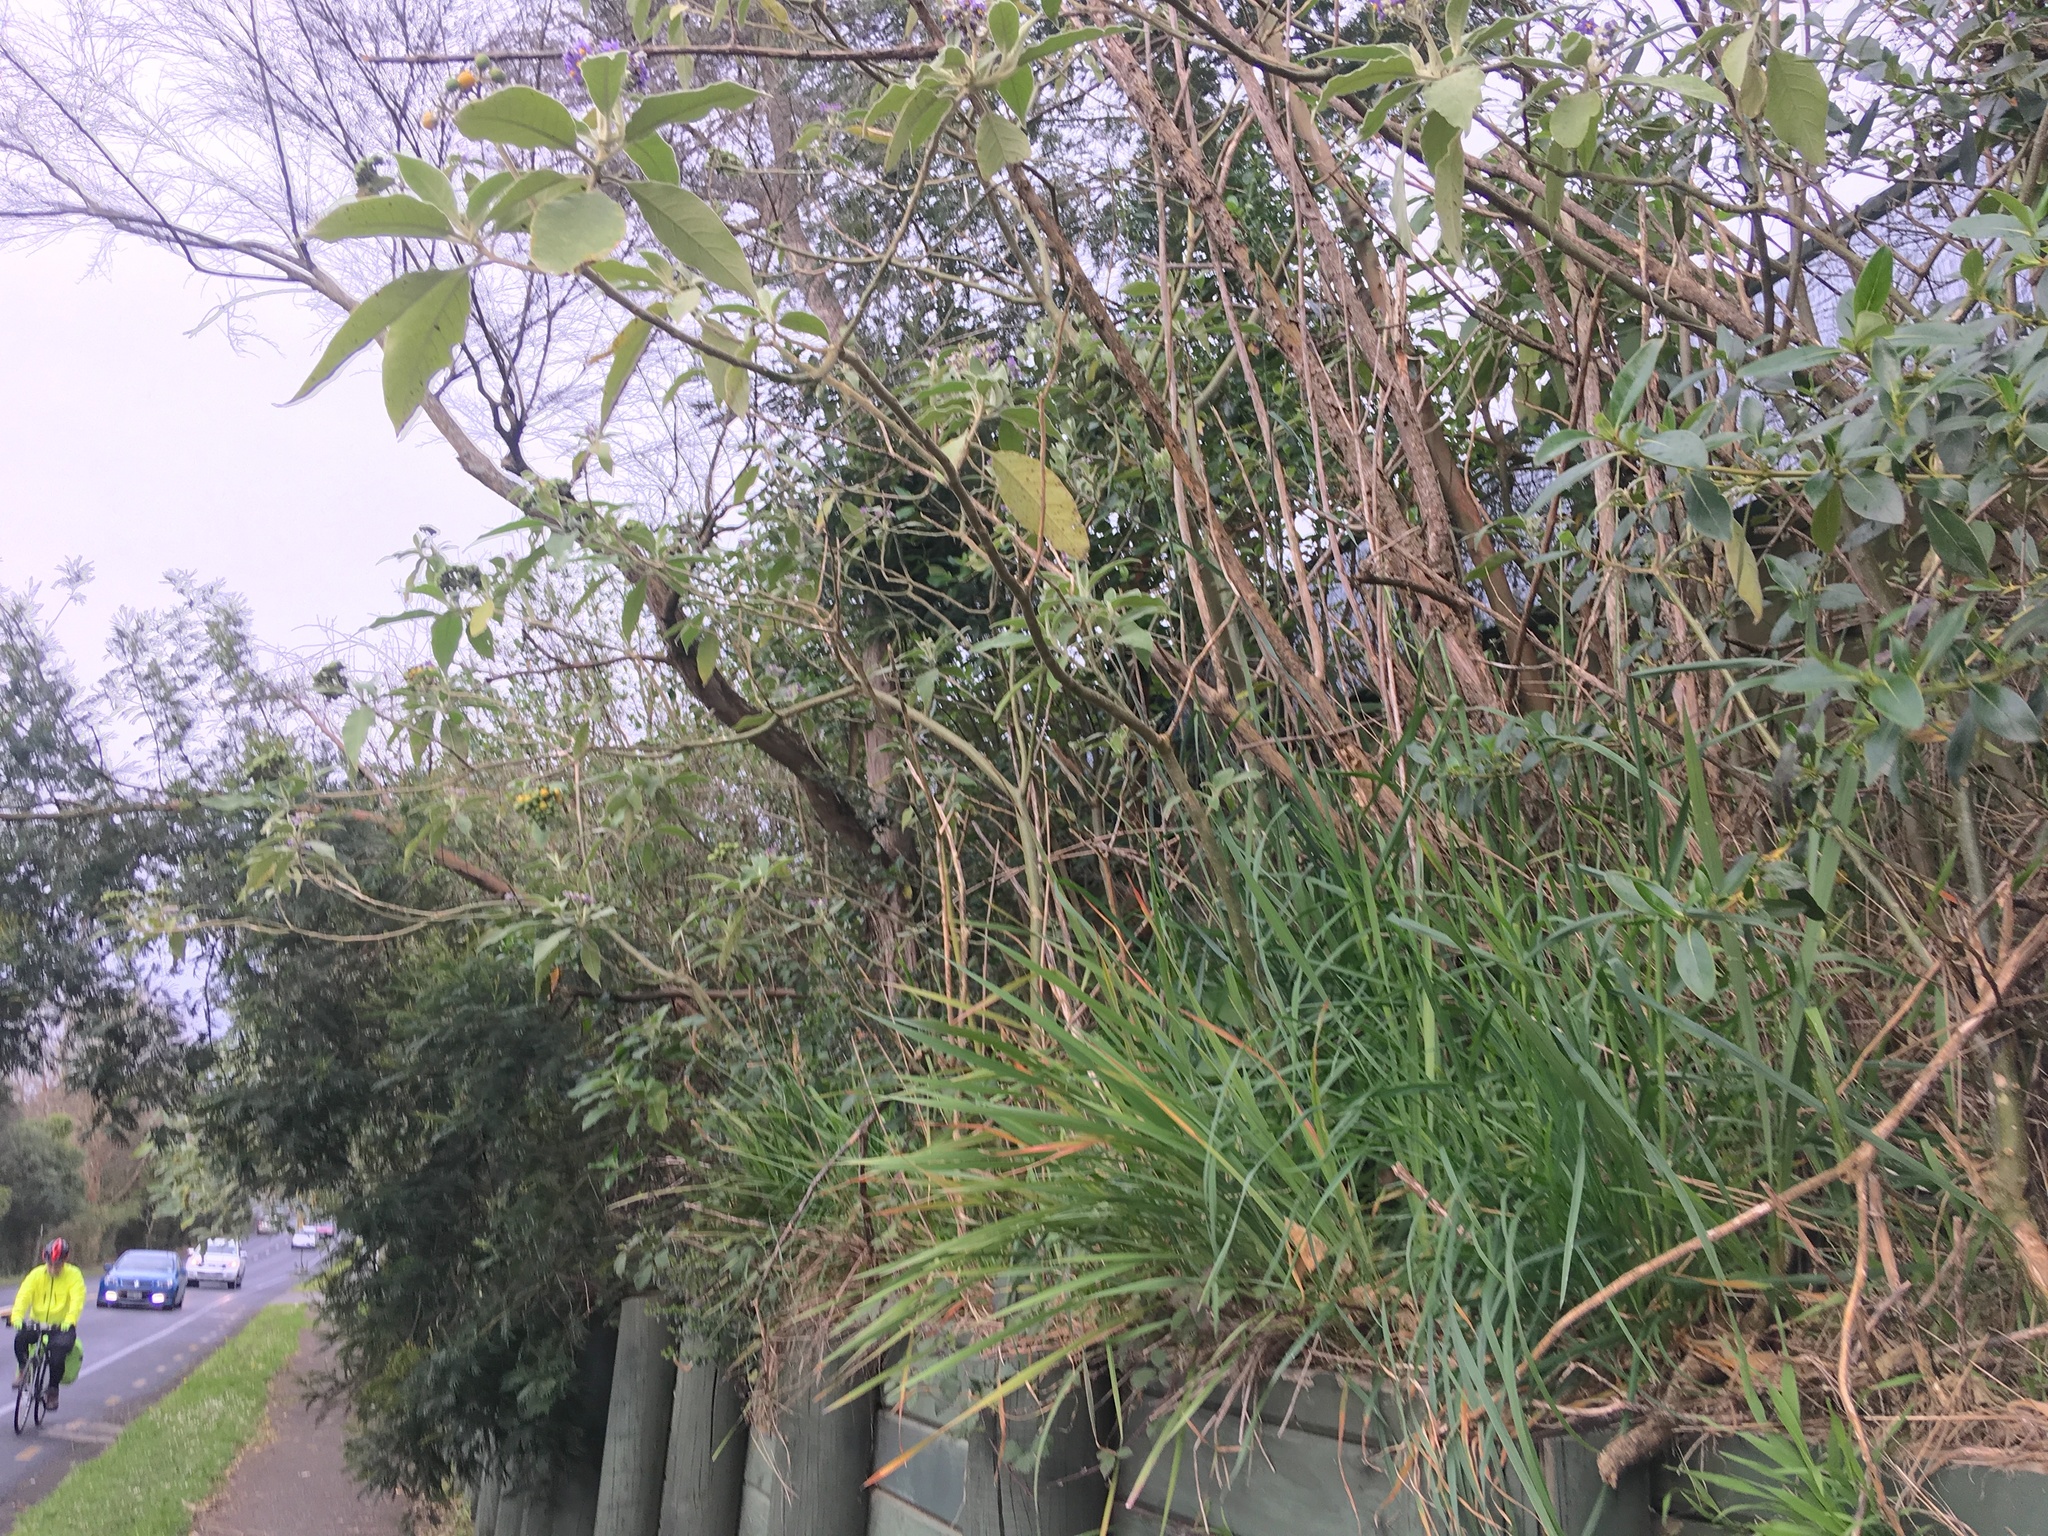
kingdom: Plantae
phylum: Tracheophyta
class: Liliopsida
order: Asparagales
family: Iridaceae
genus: Aristea
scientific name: Aristea ecklonii
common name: Blue corn-lily
